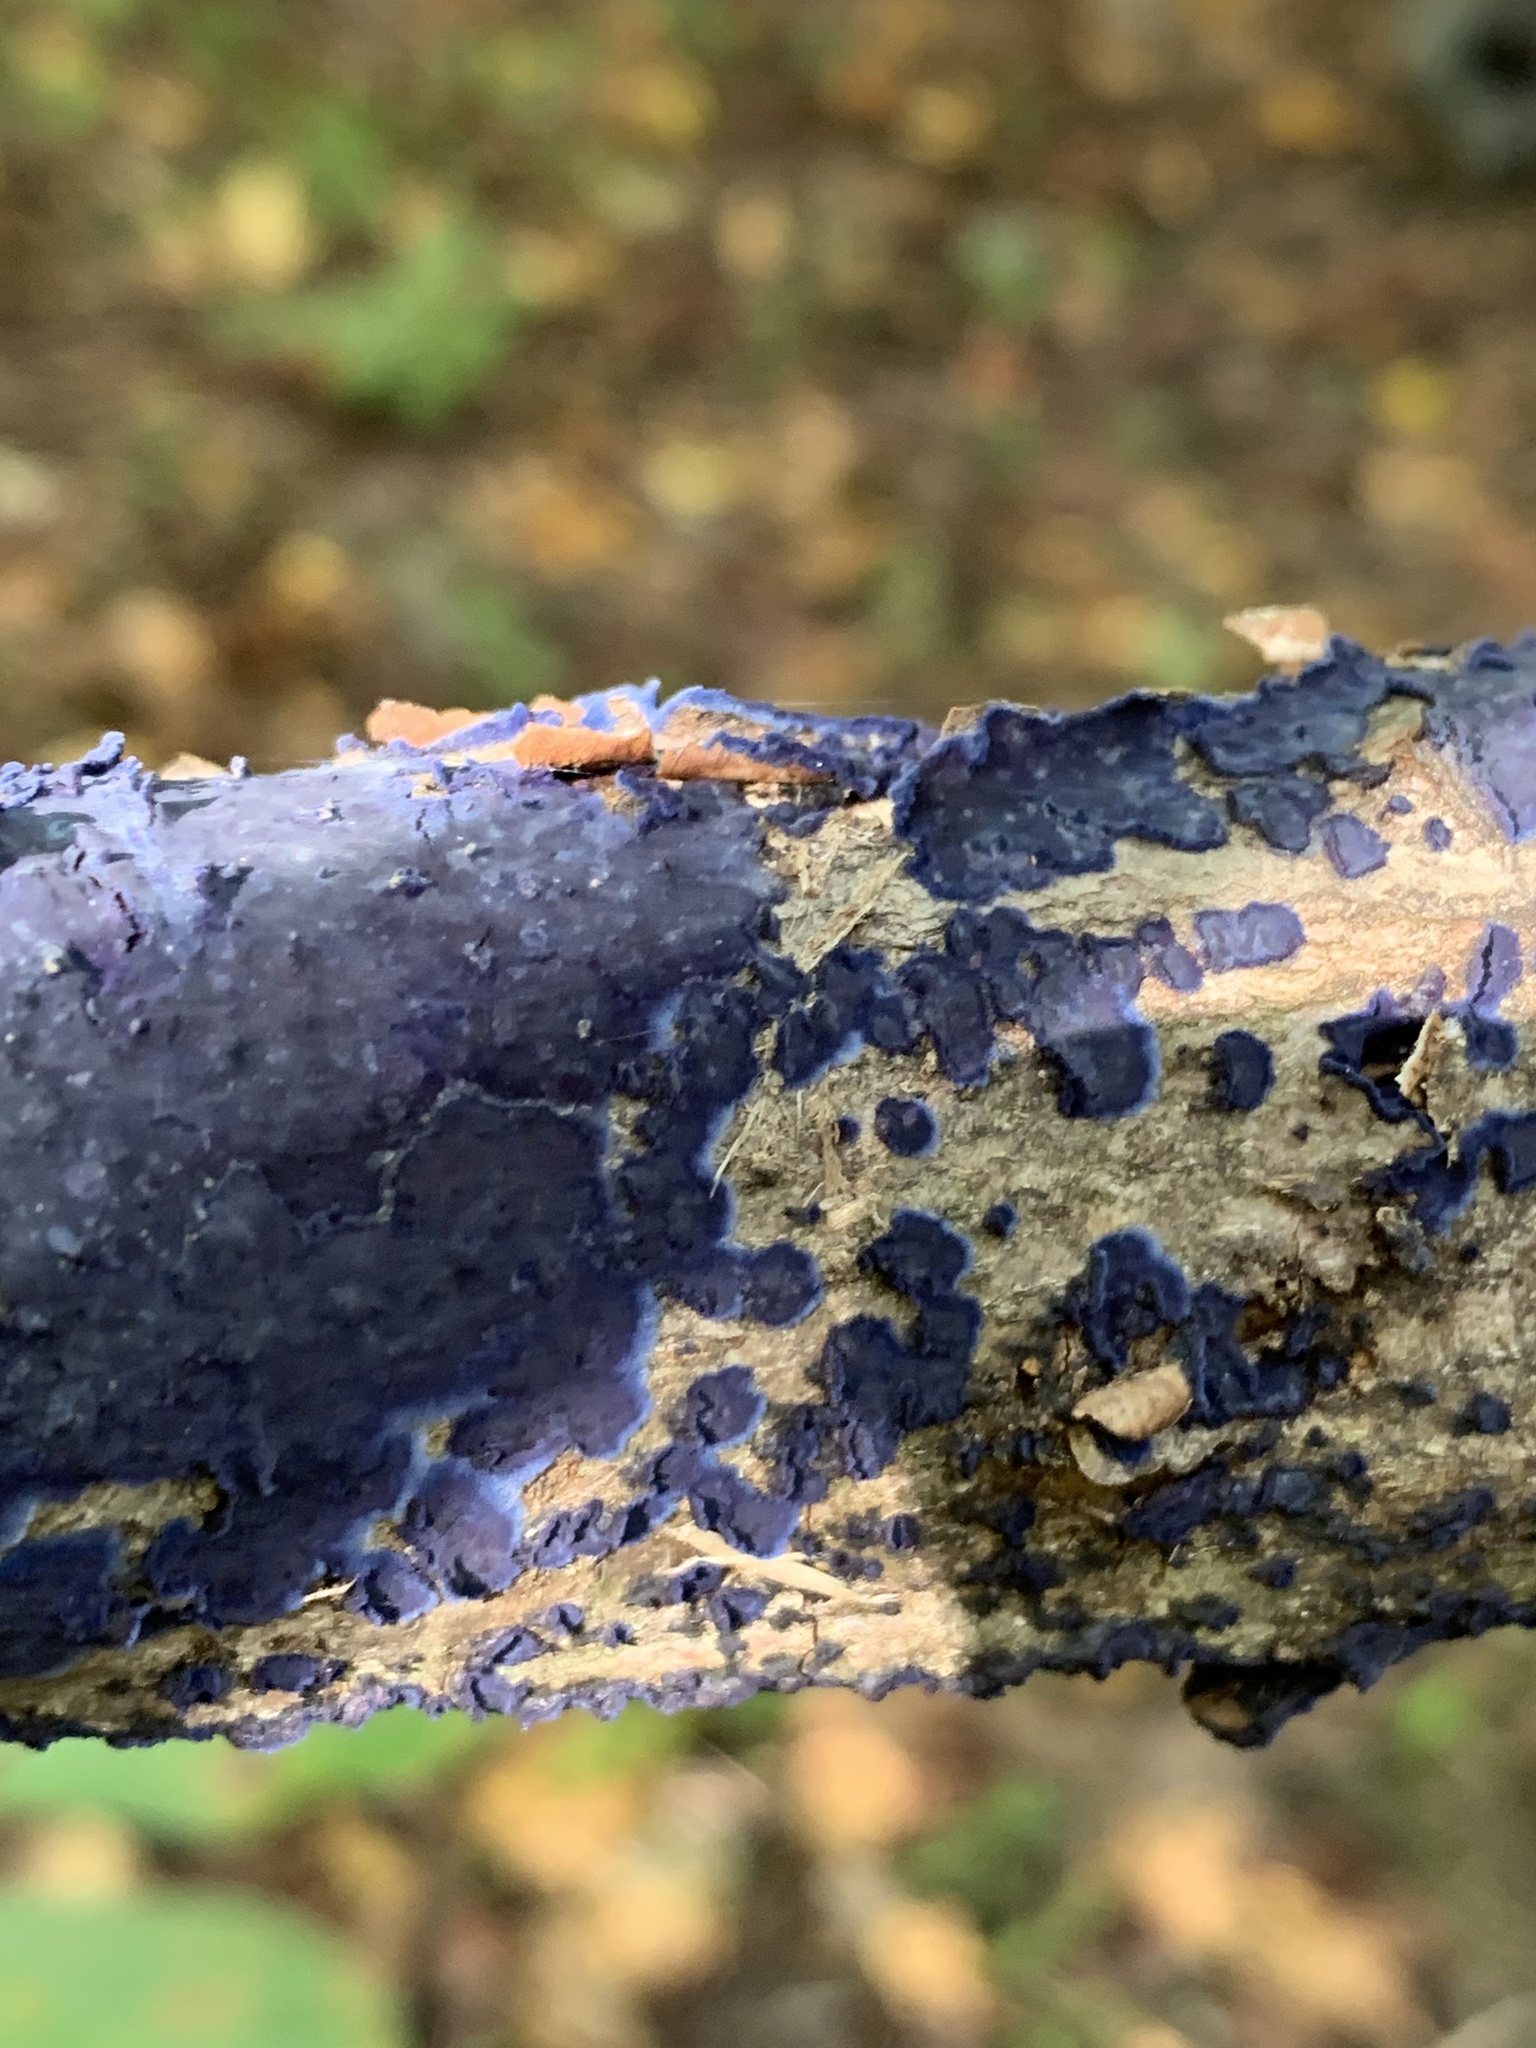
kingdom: Fungi
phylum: Basidiomycota
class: Agaricomycetes
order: Polyporales
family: Phanerochaetaceae
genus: Terana
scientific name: Terana coerulea
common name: Cobalt crust
